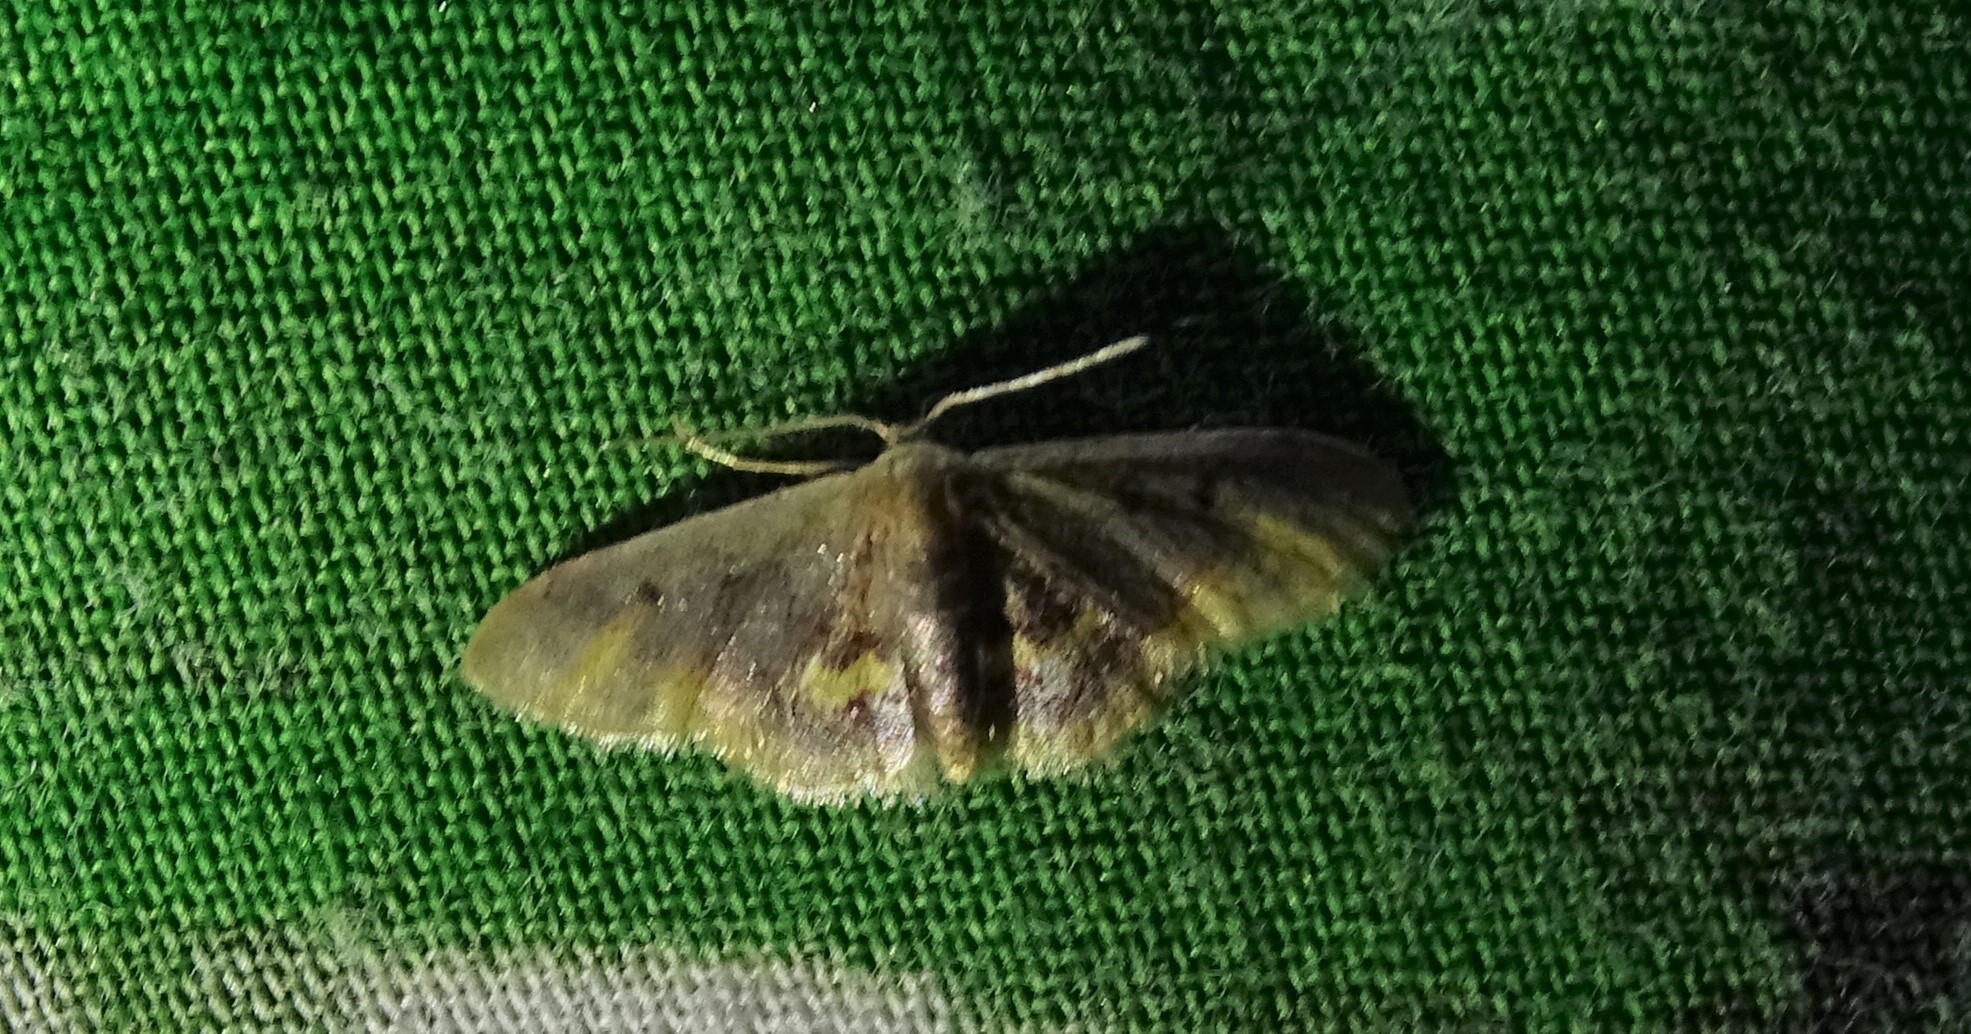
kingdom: Animalia
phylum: Arthropoda
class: Insecta
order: Lepidoptera
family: Geometridae
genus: Idaea
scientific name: Idaea scintillularia
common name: Diminutive wave
